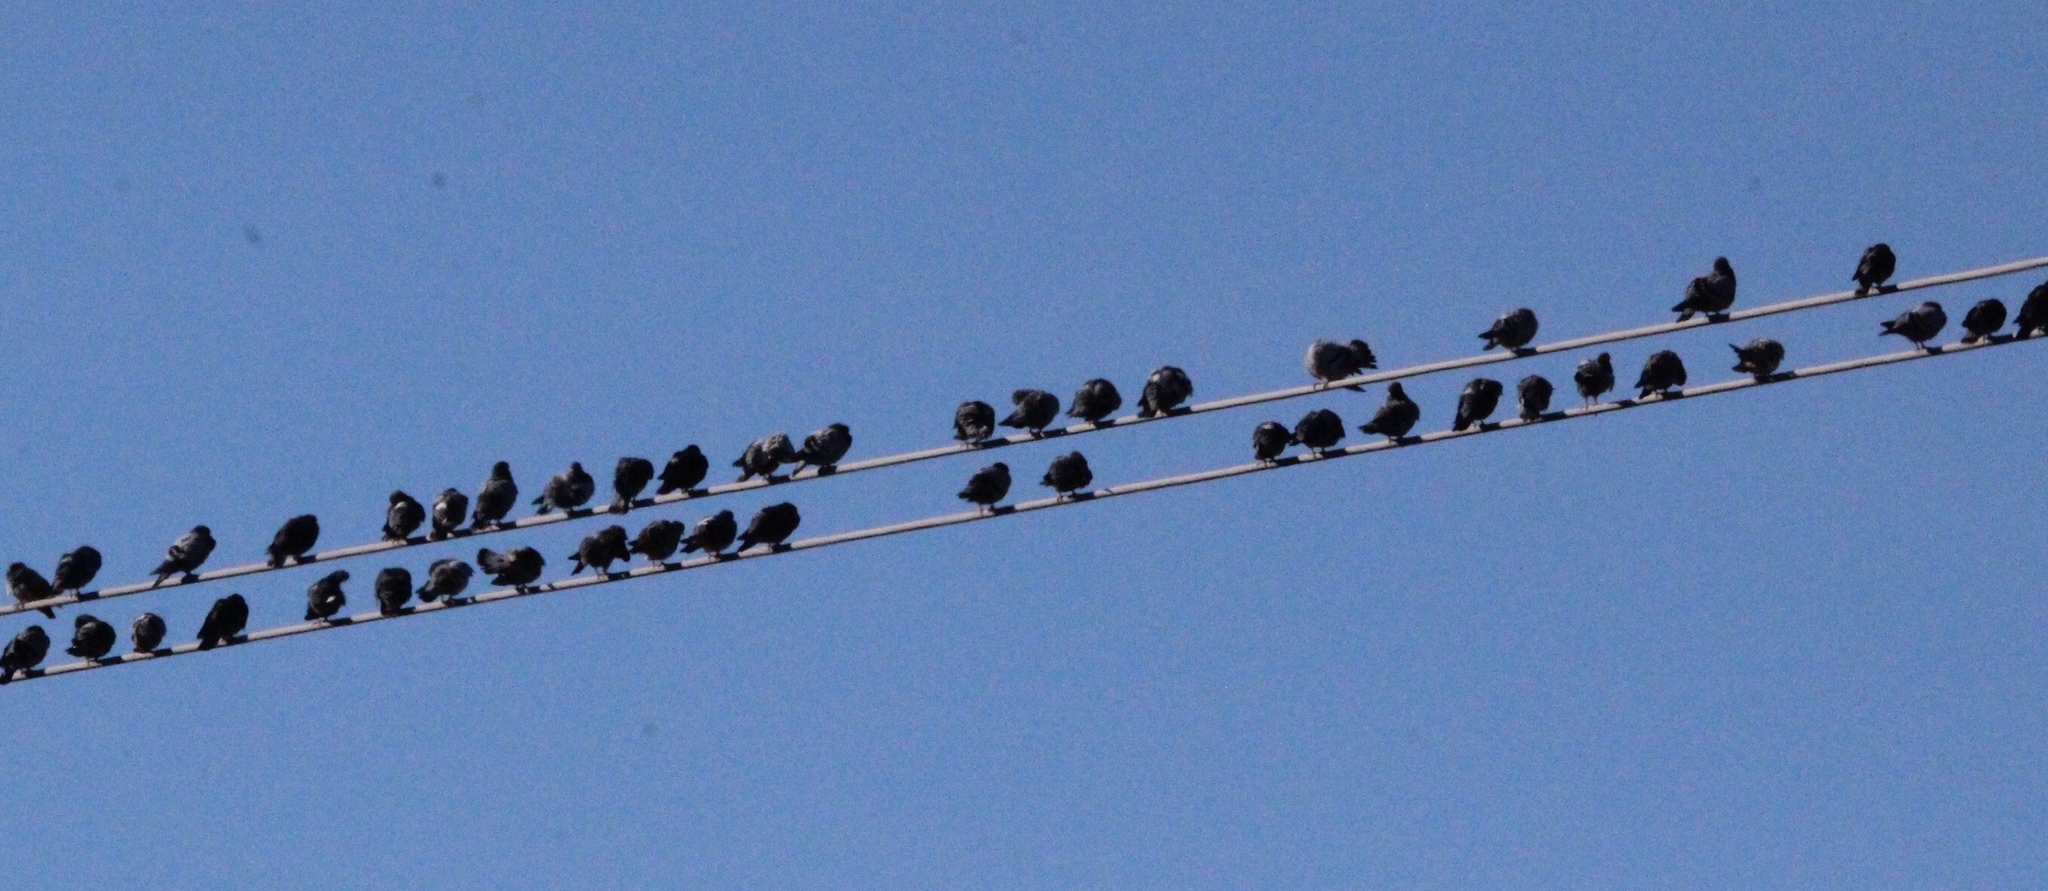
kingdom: Animalia
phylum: Chordata
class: Aves
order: Columbiformes
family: Columbidae
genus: Columba
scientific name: Columba livia
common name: Rock pigeon
